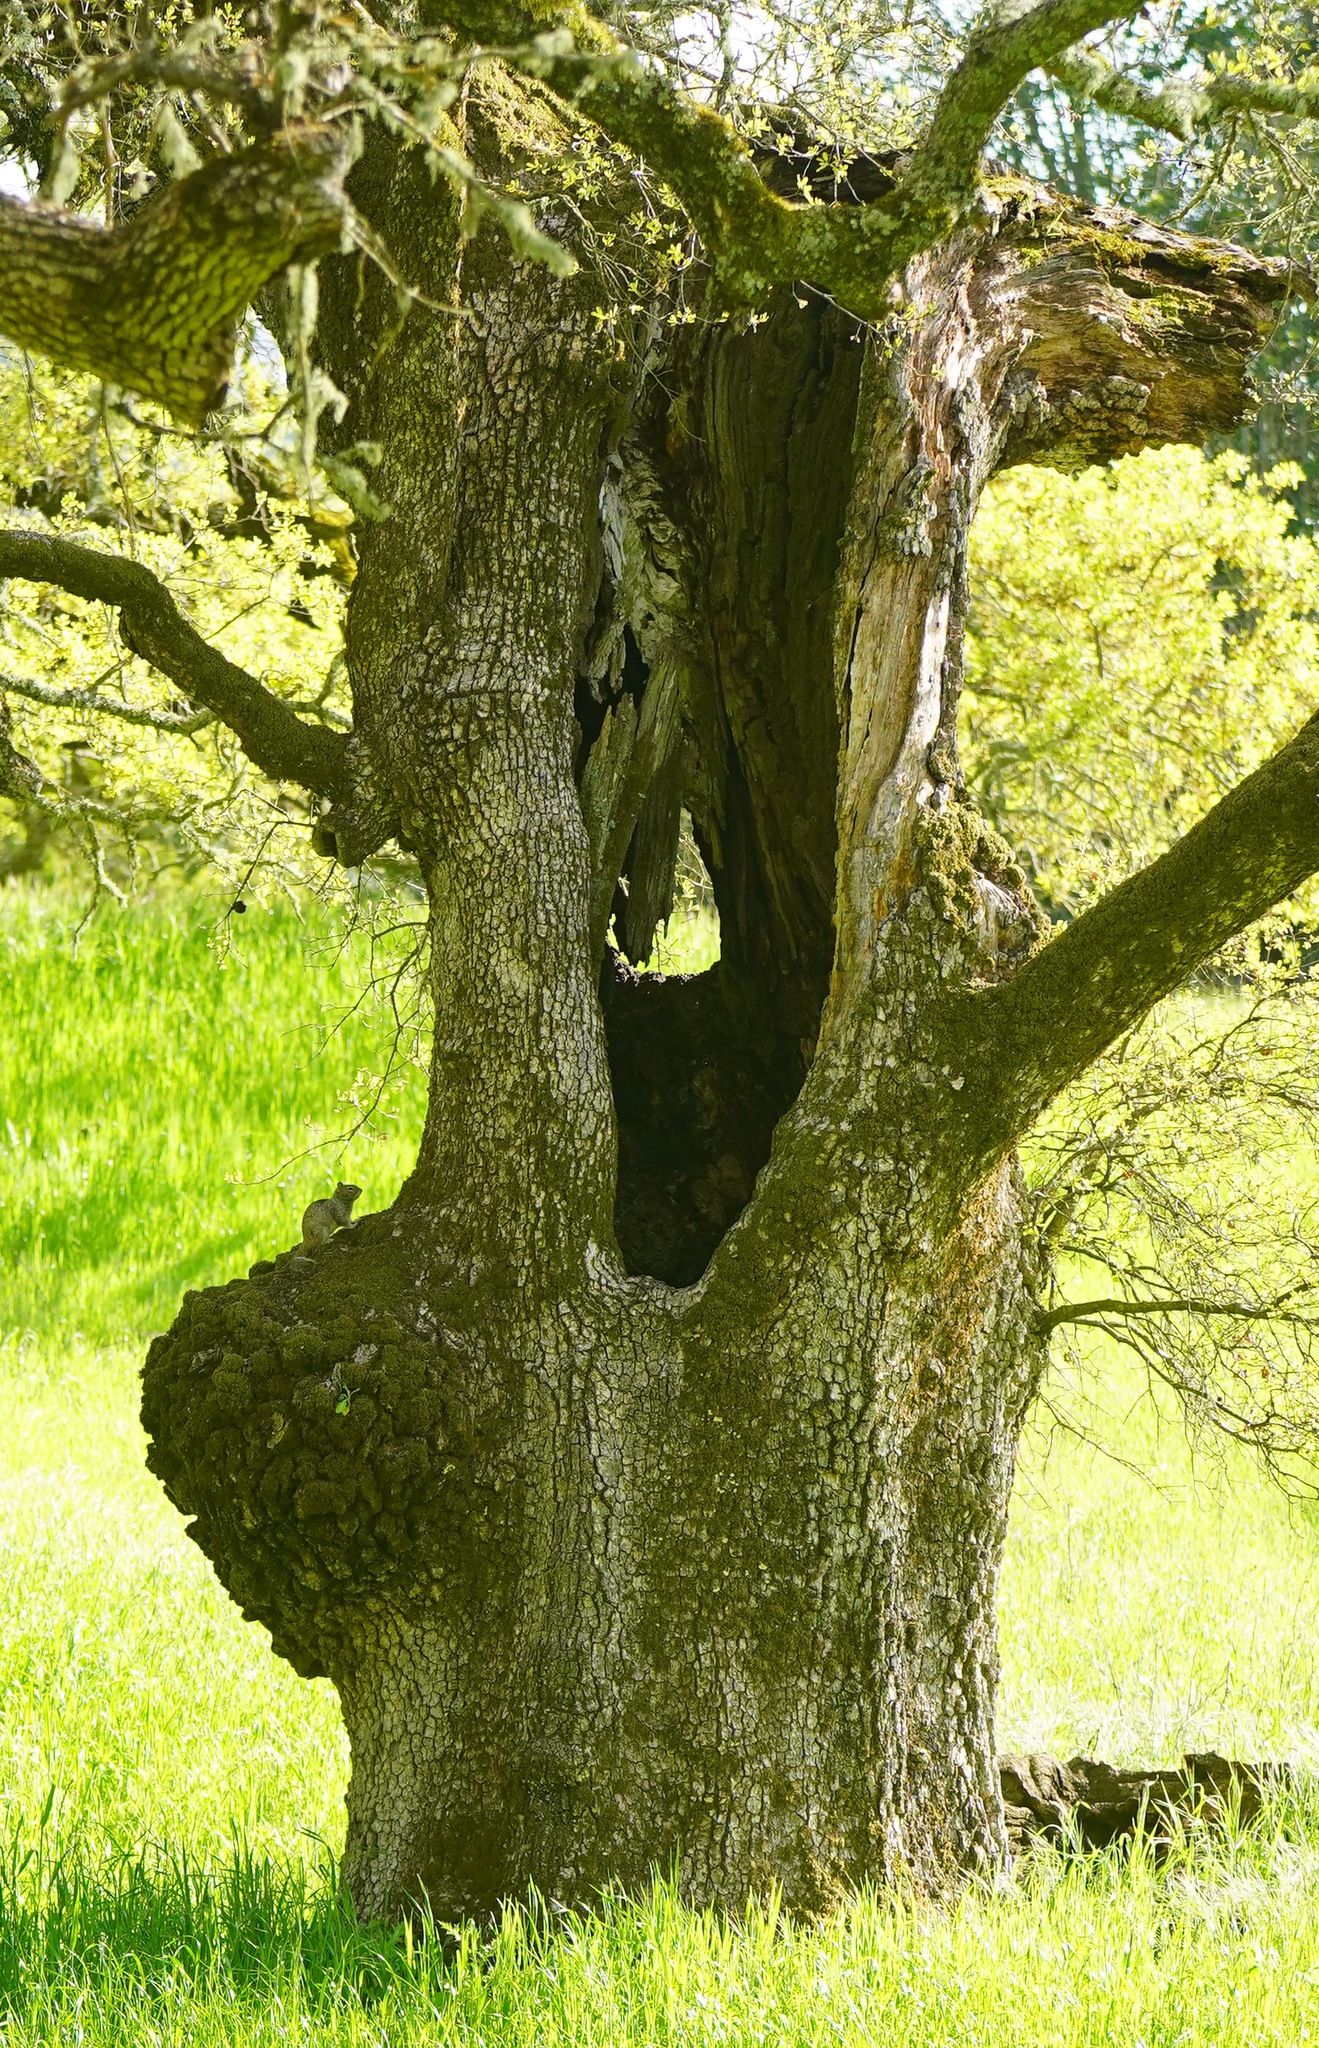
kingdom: Animalia
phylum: Chordata
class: Mammalia
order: Rodentia
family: Sciuridae
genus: Otospermophilus
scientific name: Otospermophilus beecheyi
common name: California ground squirrel
